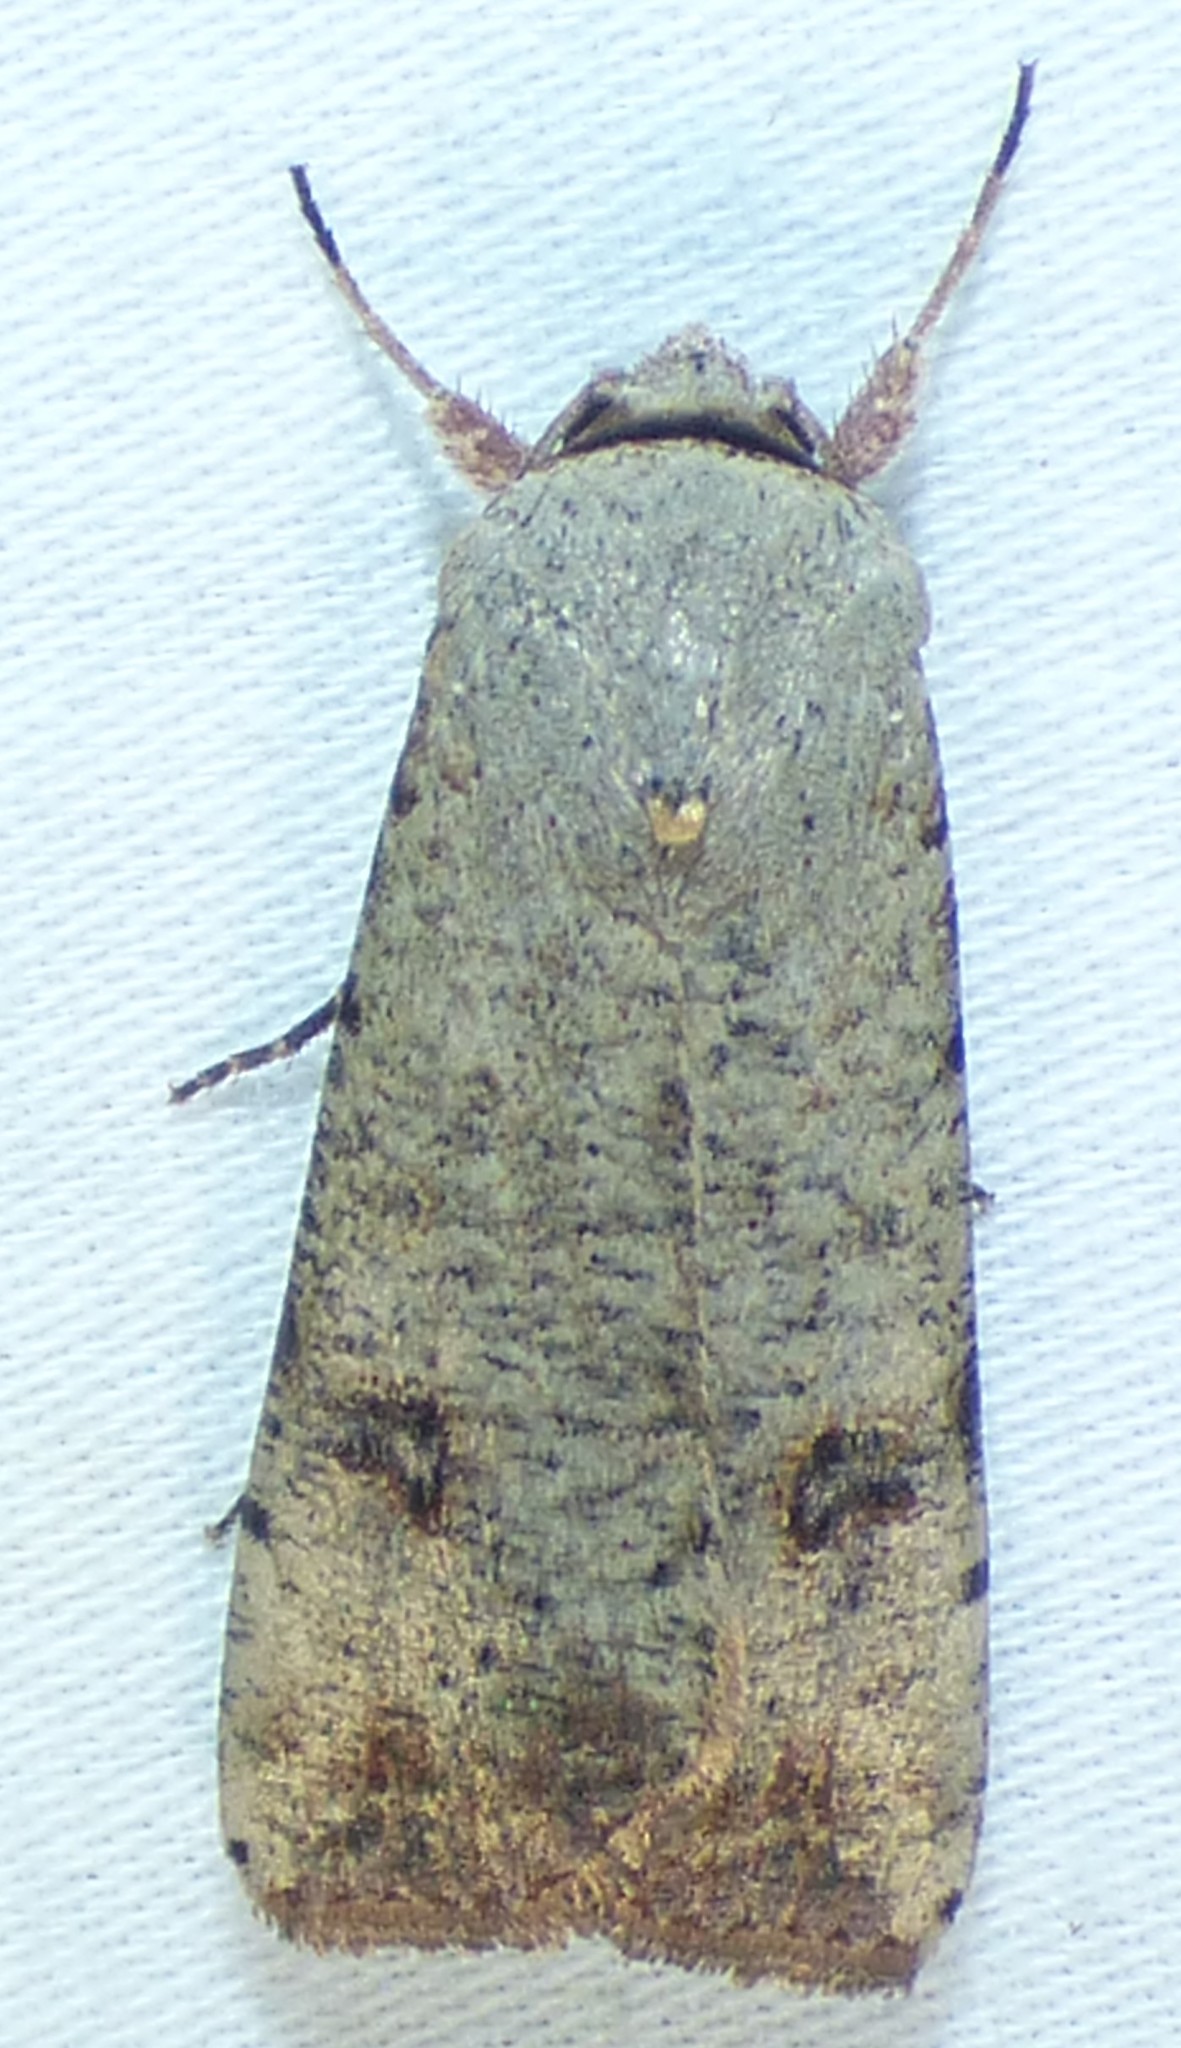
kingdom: Animalia
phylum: Arthropoda
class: Insecta
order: Lepidoptera
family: Noctuidae
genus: Anicla
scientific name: Anicla infecta
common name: Green cutworm
